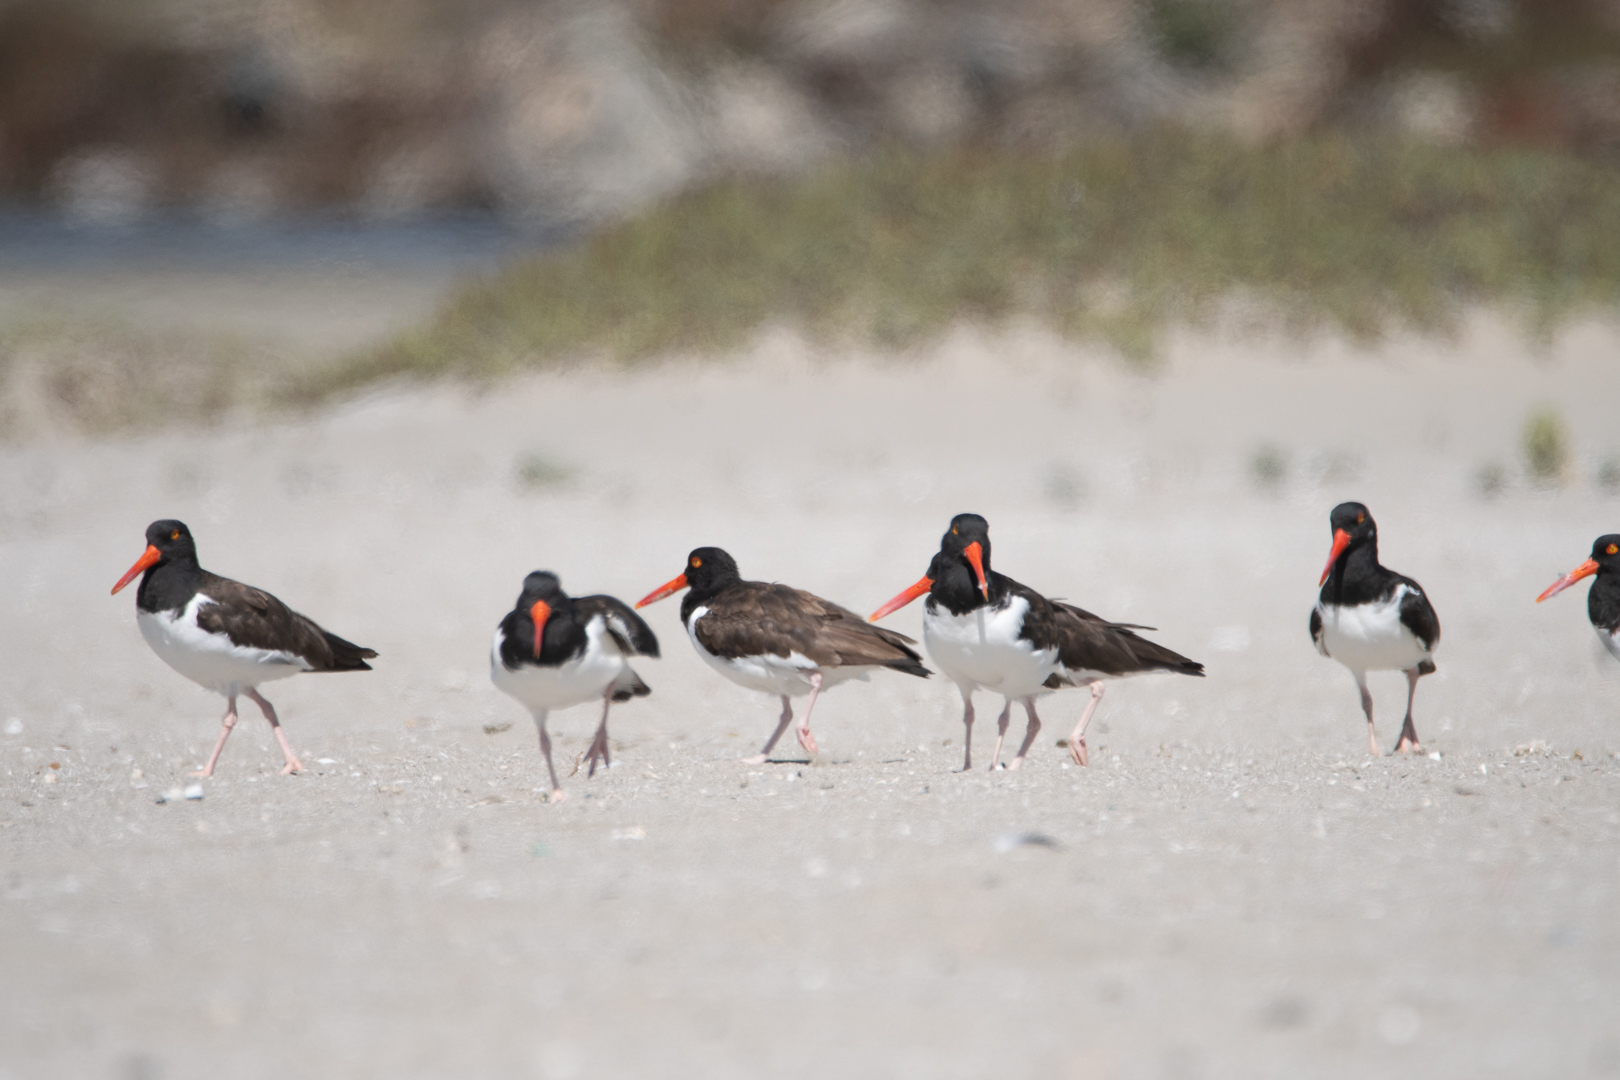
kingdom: Animalia
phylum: Chordata
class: Aves
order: Charadriiformes
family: Haematopodidae
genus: Haematopus
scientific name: Haematopus palliatus
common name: American oystercatcher
